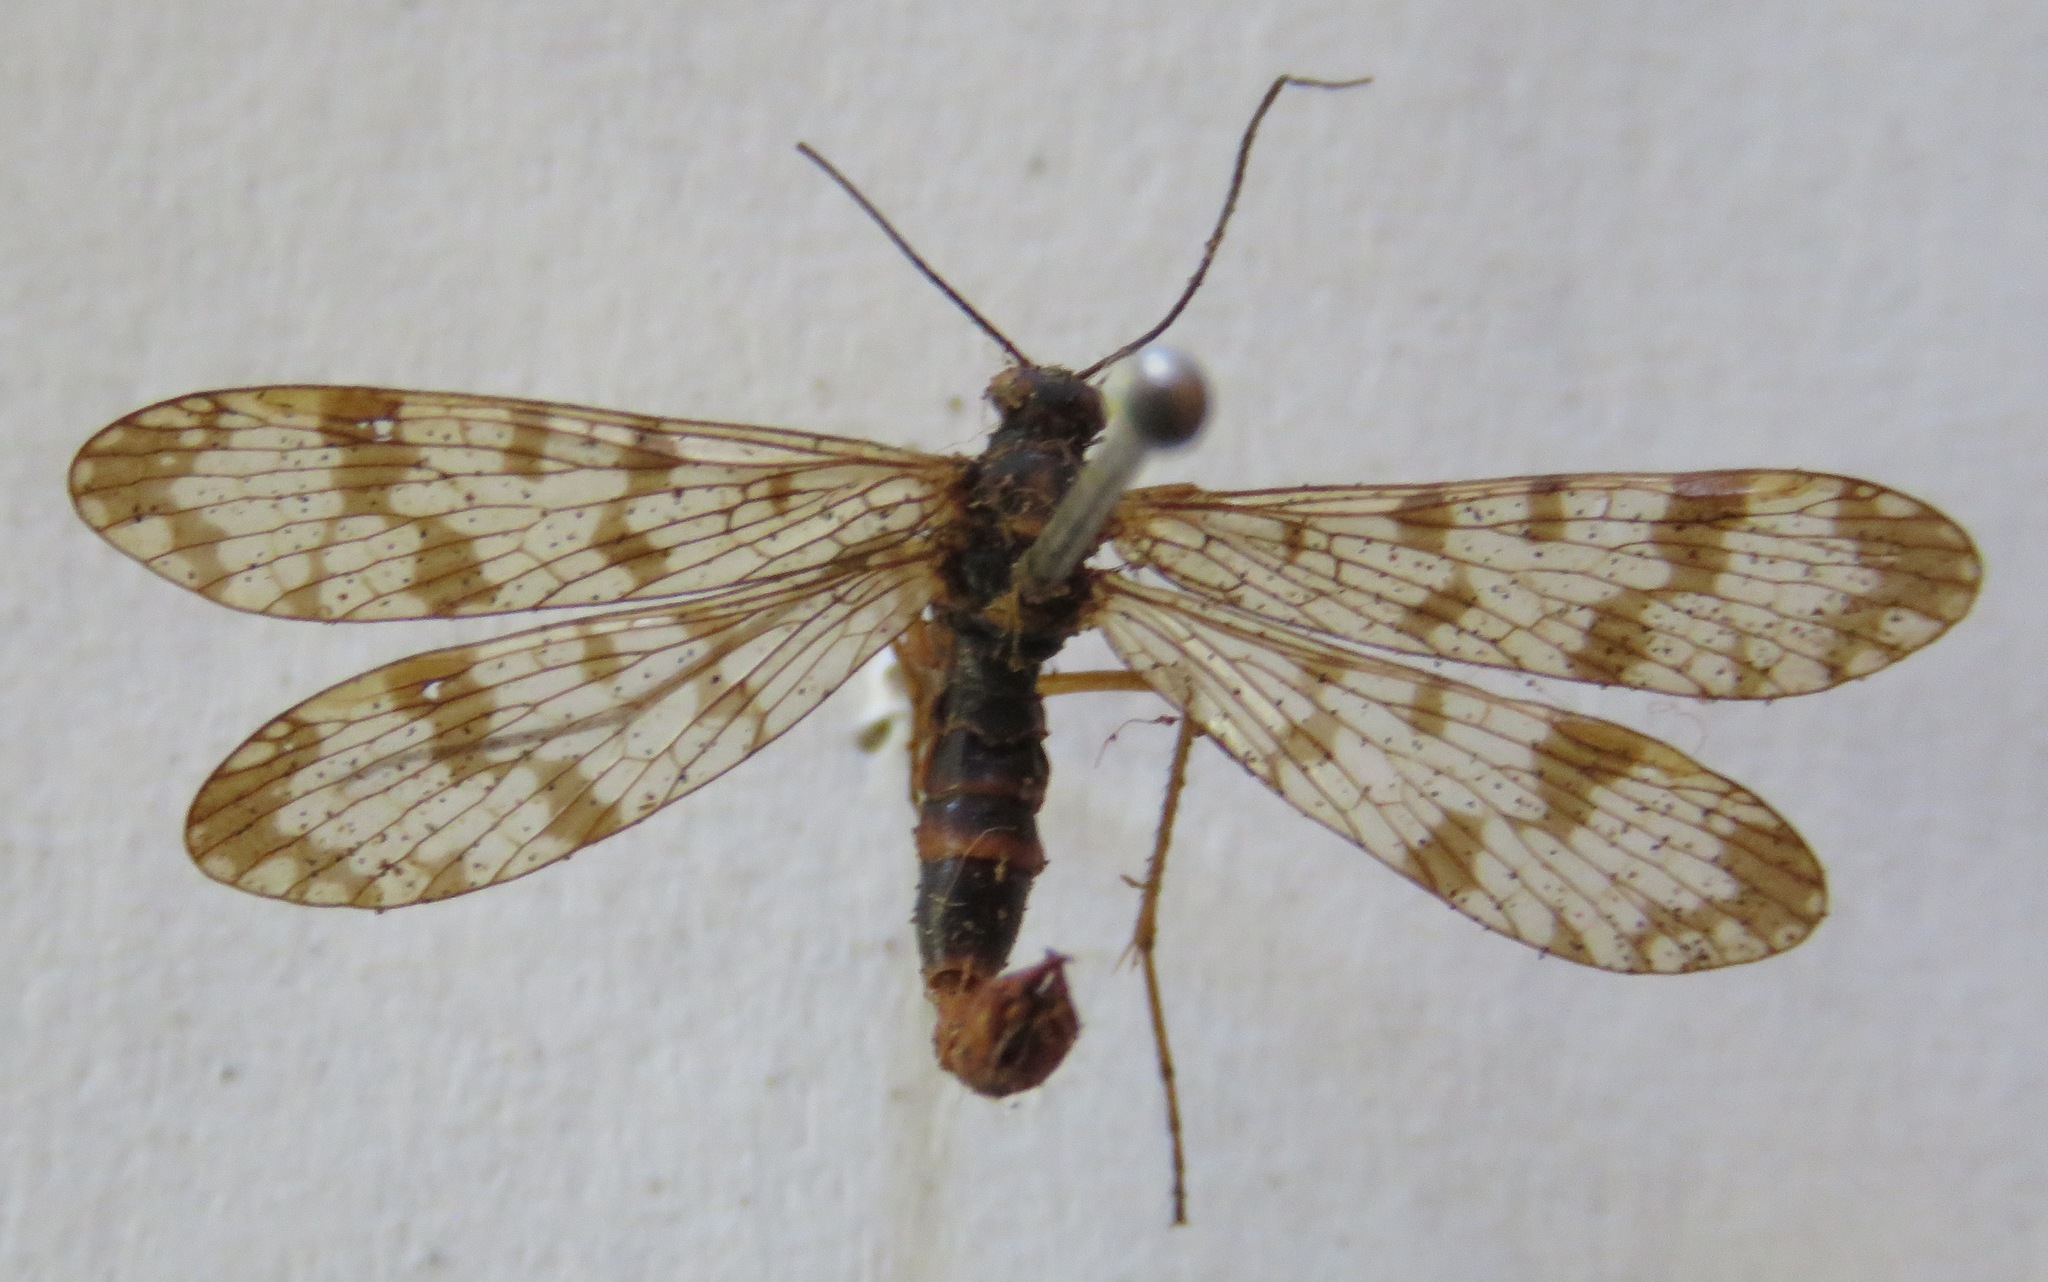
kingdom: Animalia
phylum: Arthropoda
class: Insecta
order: Mecoptera
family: Panorpidae
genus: Panorpa
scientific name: Panorpa communis
